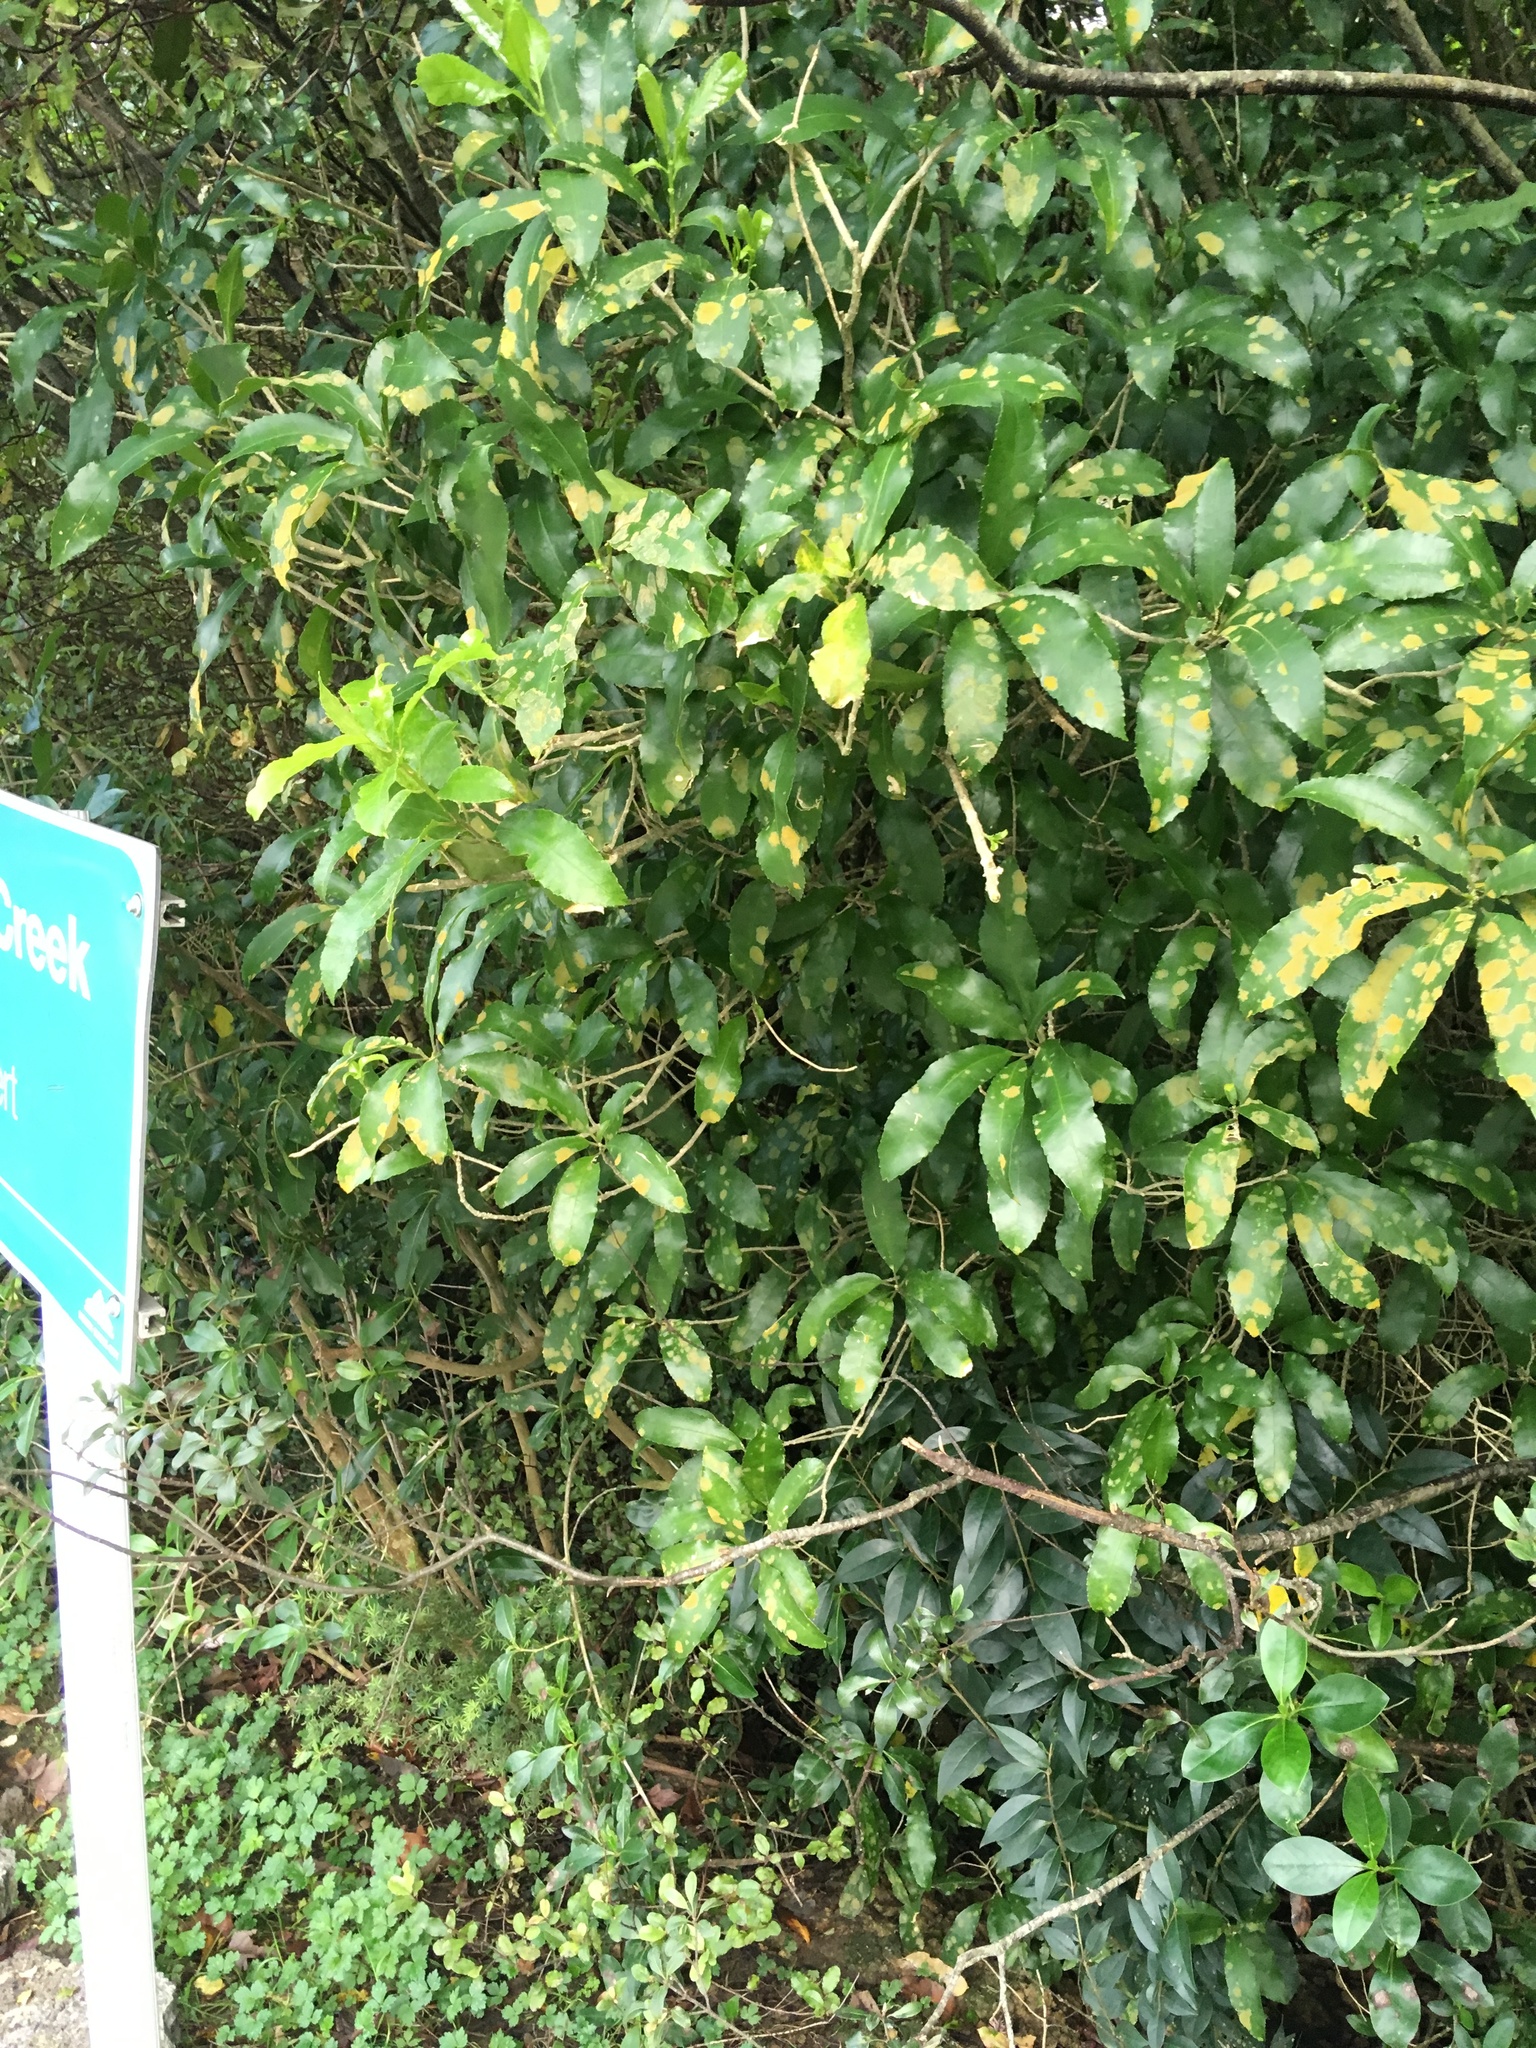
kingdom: Plantae
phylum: Tracheophyta
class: Magnoliopsida
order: Malpighiales
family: Violaceae
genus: Melicytus
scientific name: Melicytus ramiflorus
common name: Mahoe
